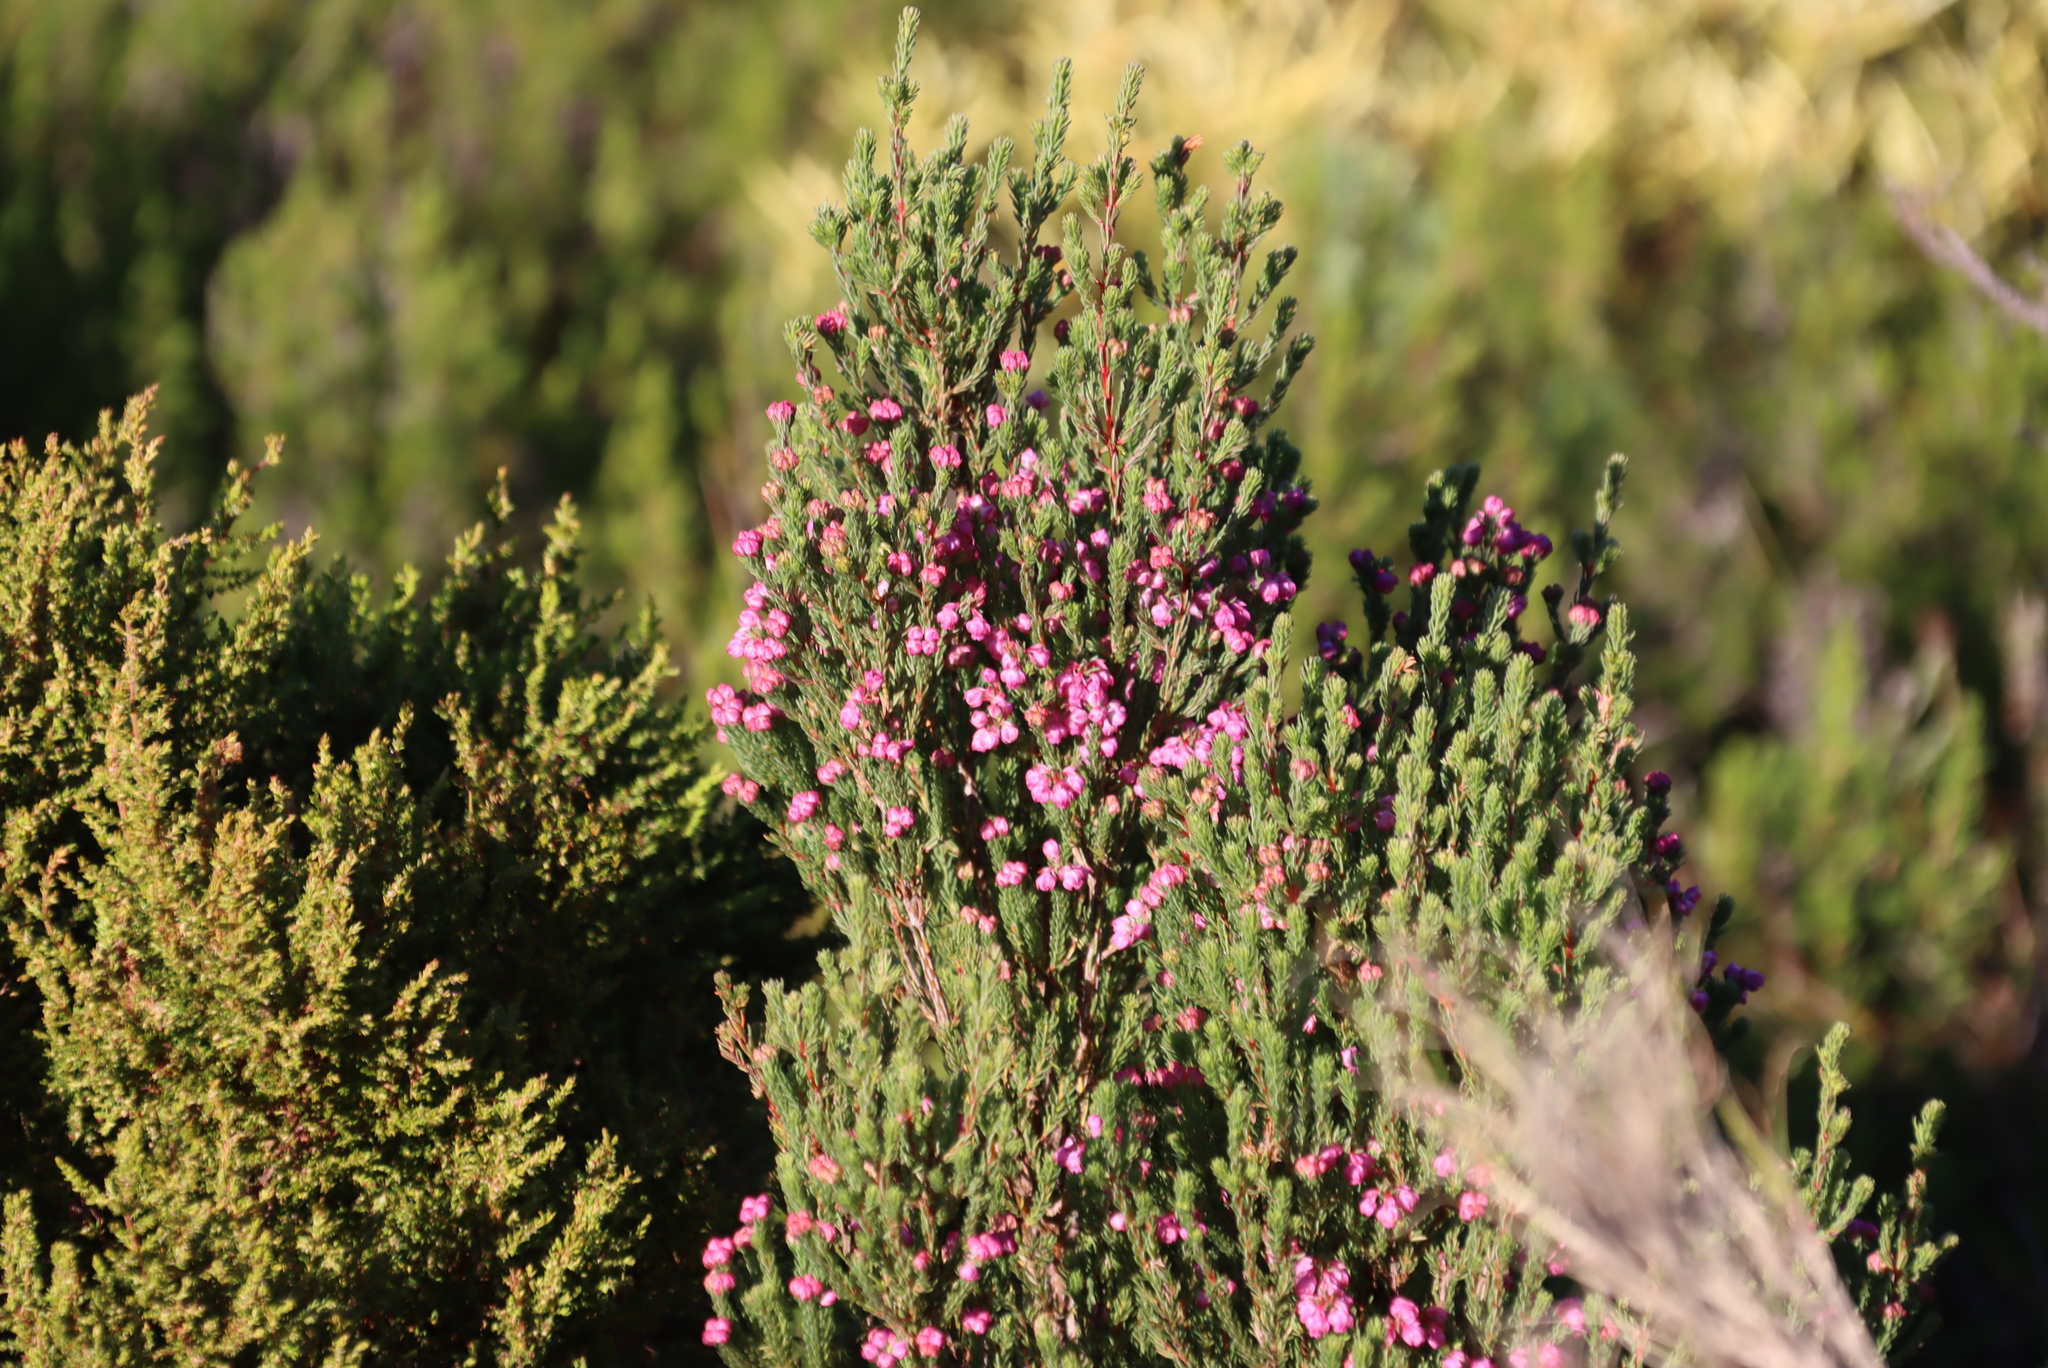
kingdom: Plantae
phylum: Tracheophyta
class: Magnoliopsida
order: Ericales
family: Ericaceae
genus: Erica
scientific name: Erica baccans
